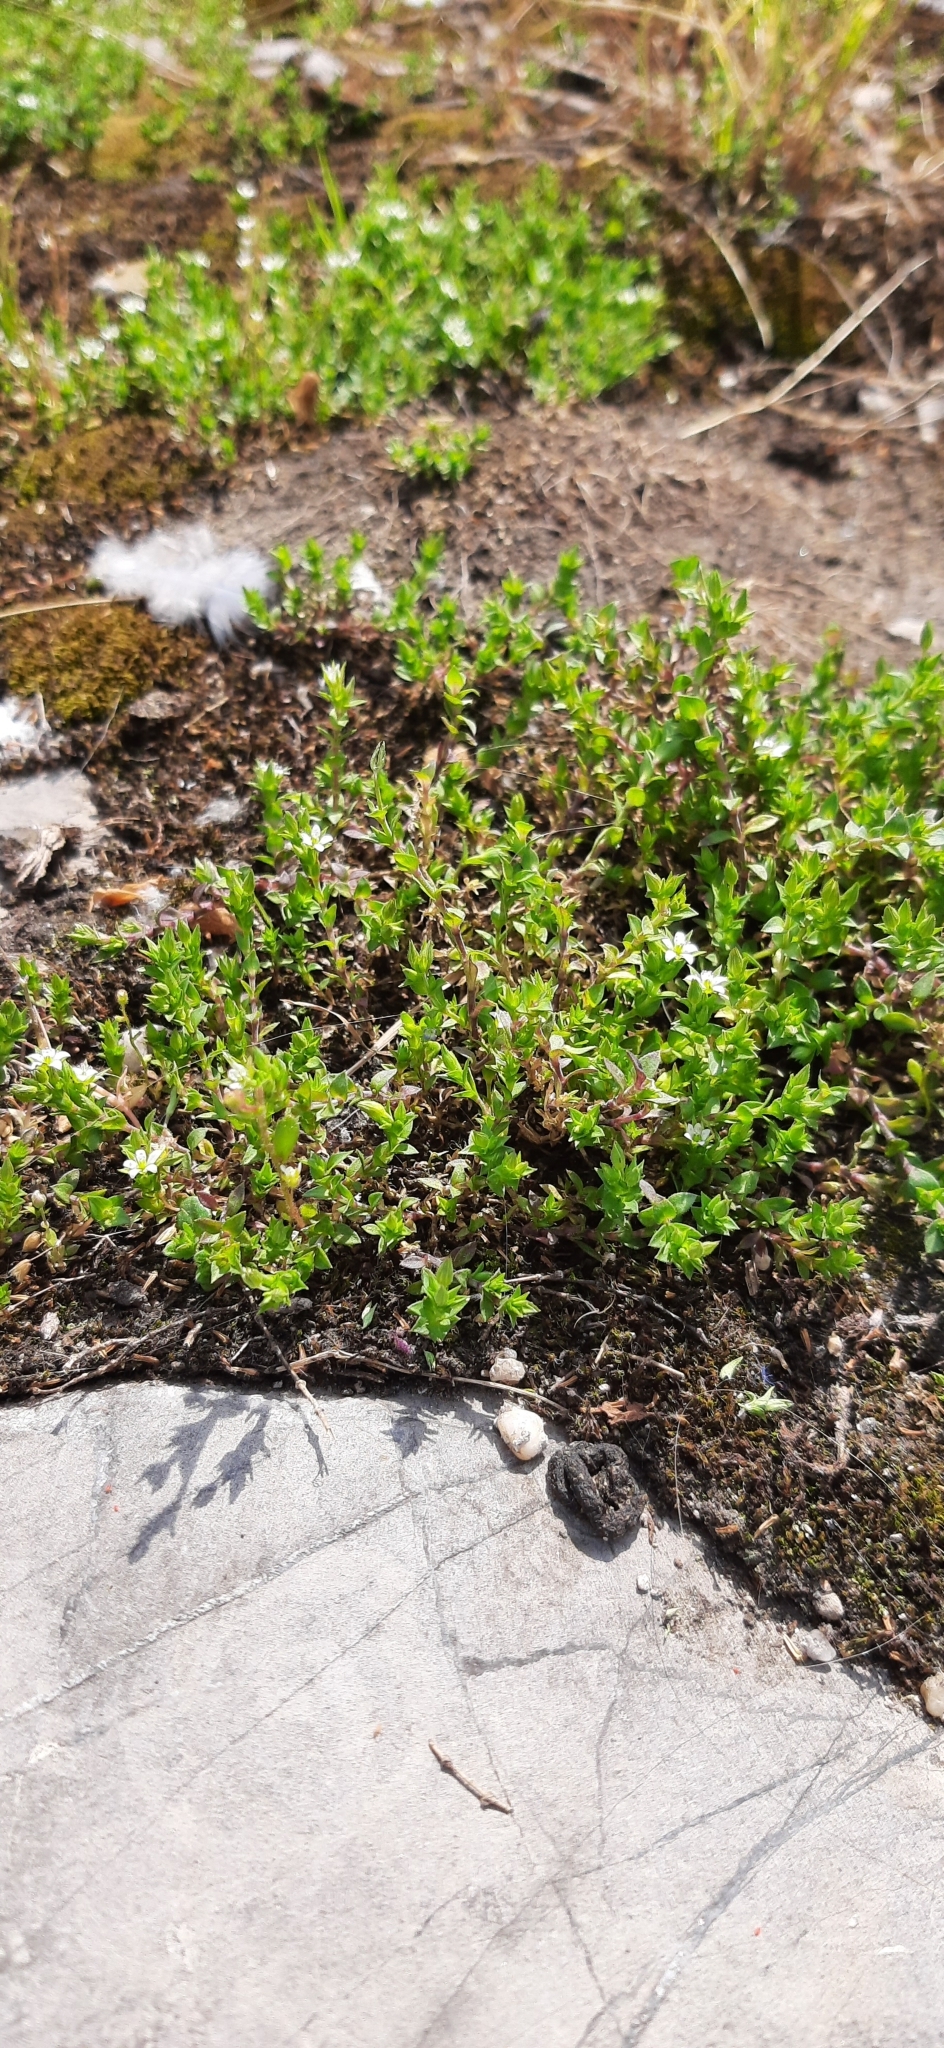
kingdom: Plantae
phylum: Tracheophyta
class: Magnoliopsida
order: Caryophyllales
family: Caryophyllaceae
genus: Arenaria
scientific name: Arenaria serpyllifolia
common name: Thyme-leaved sandwort
